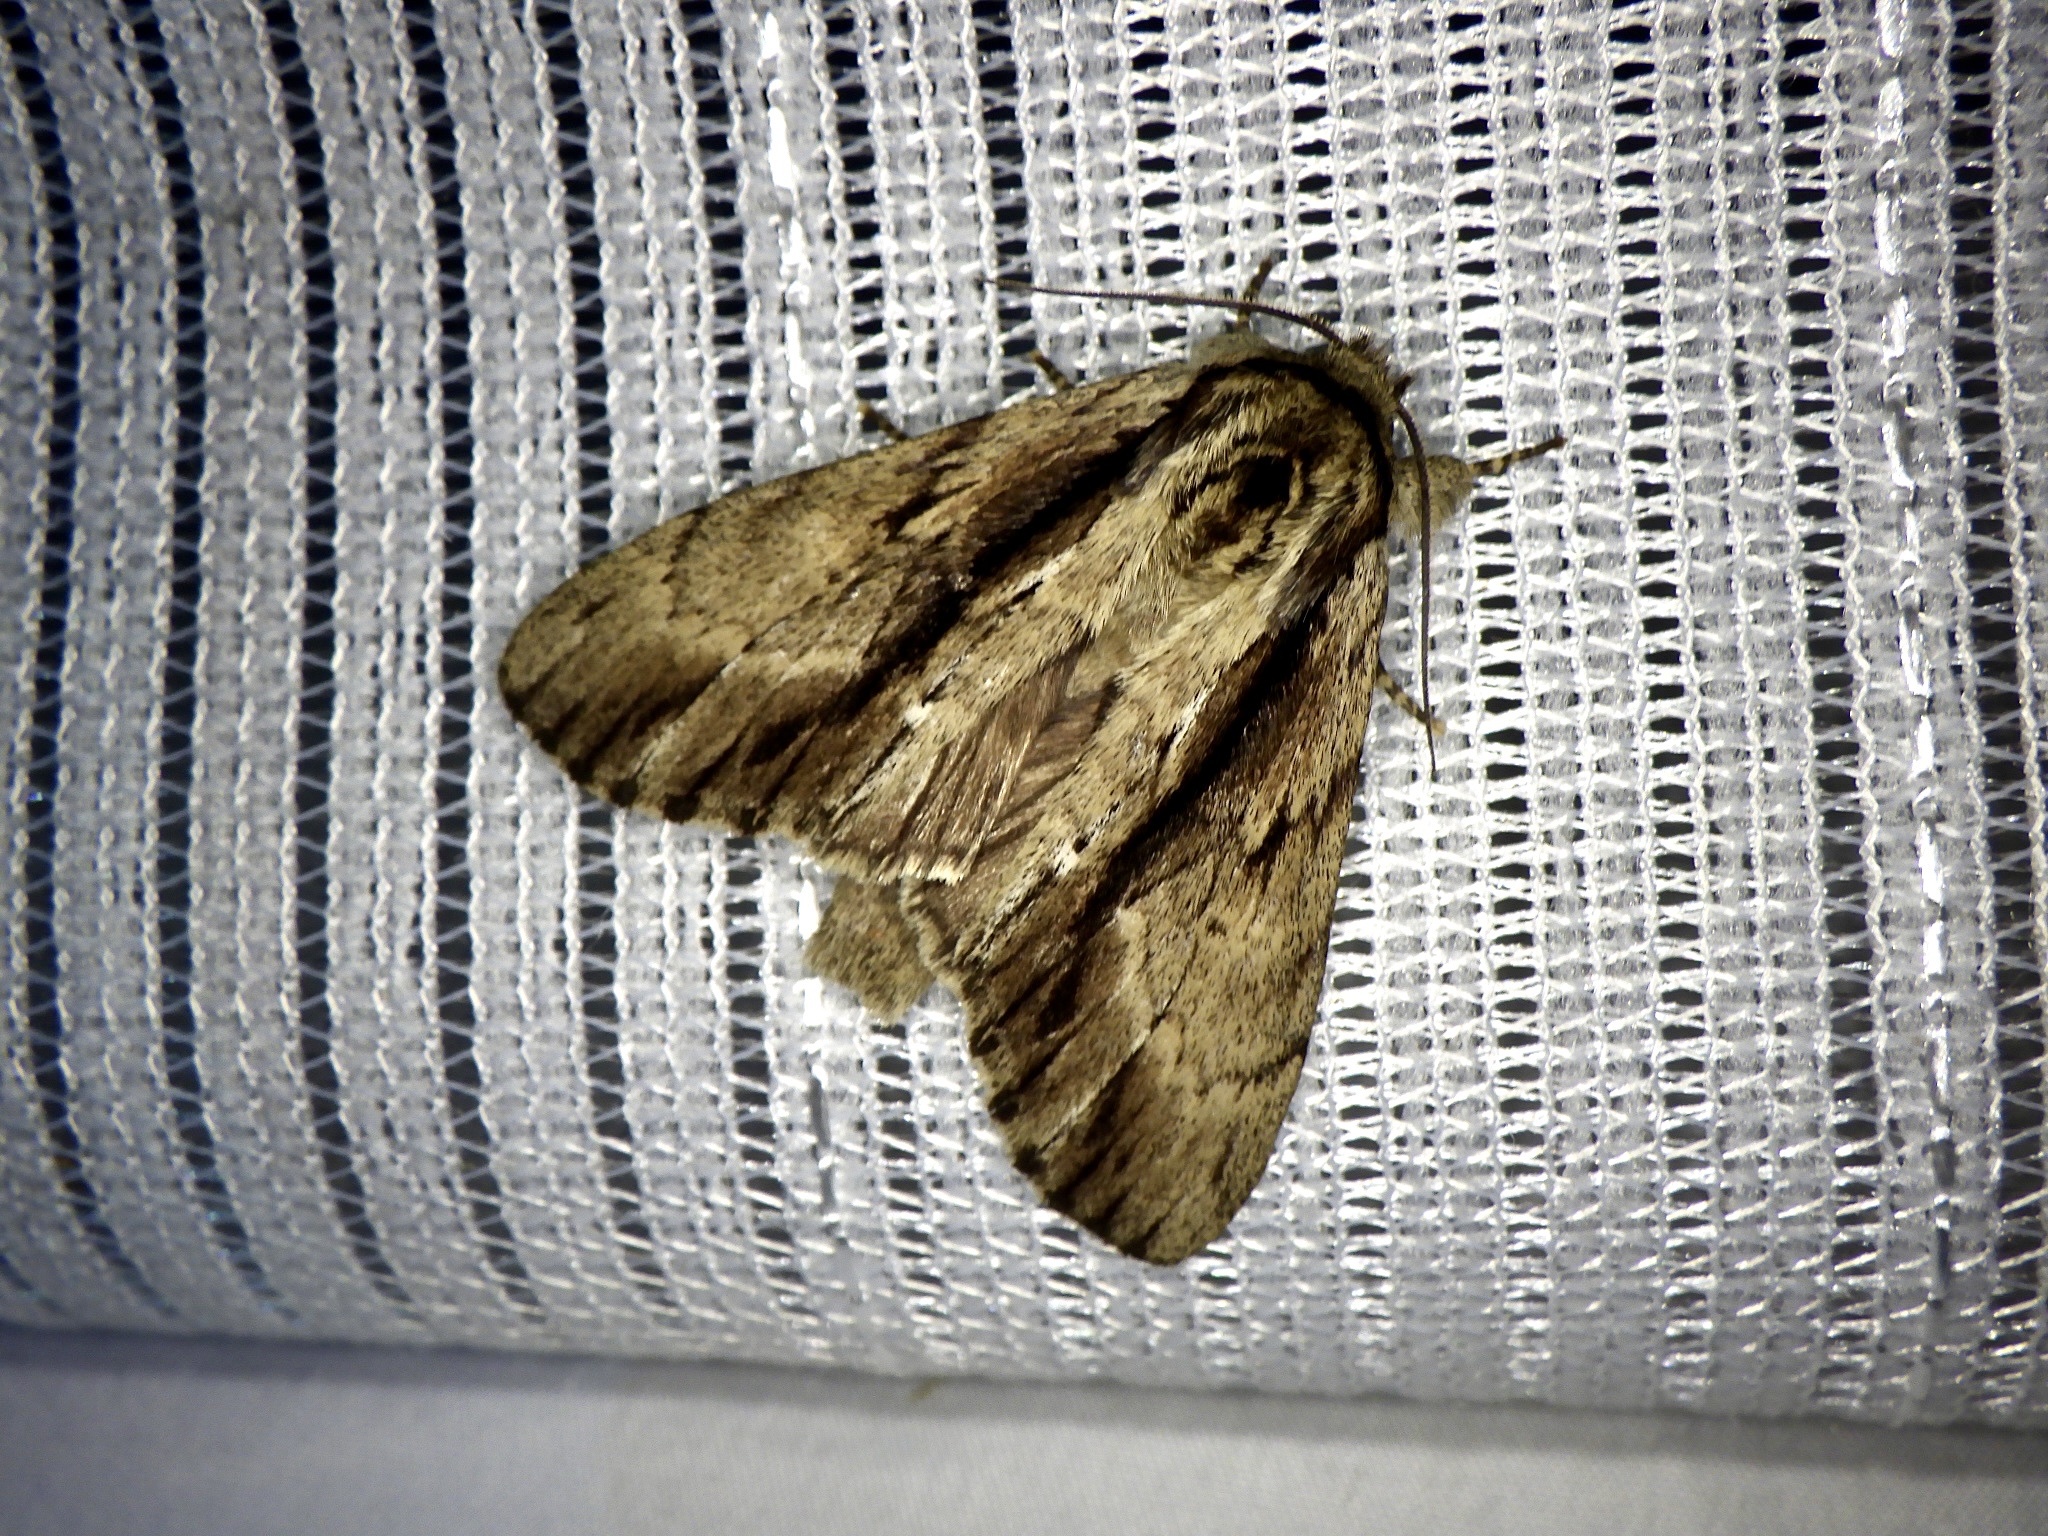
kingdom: Animalia
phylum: Arthropoda
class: Insecta
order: Lepidoptera
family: Notodontidae
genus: Shaka
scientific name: Shaka atrovittatus
